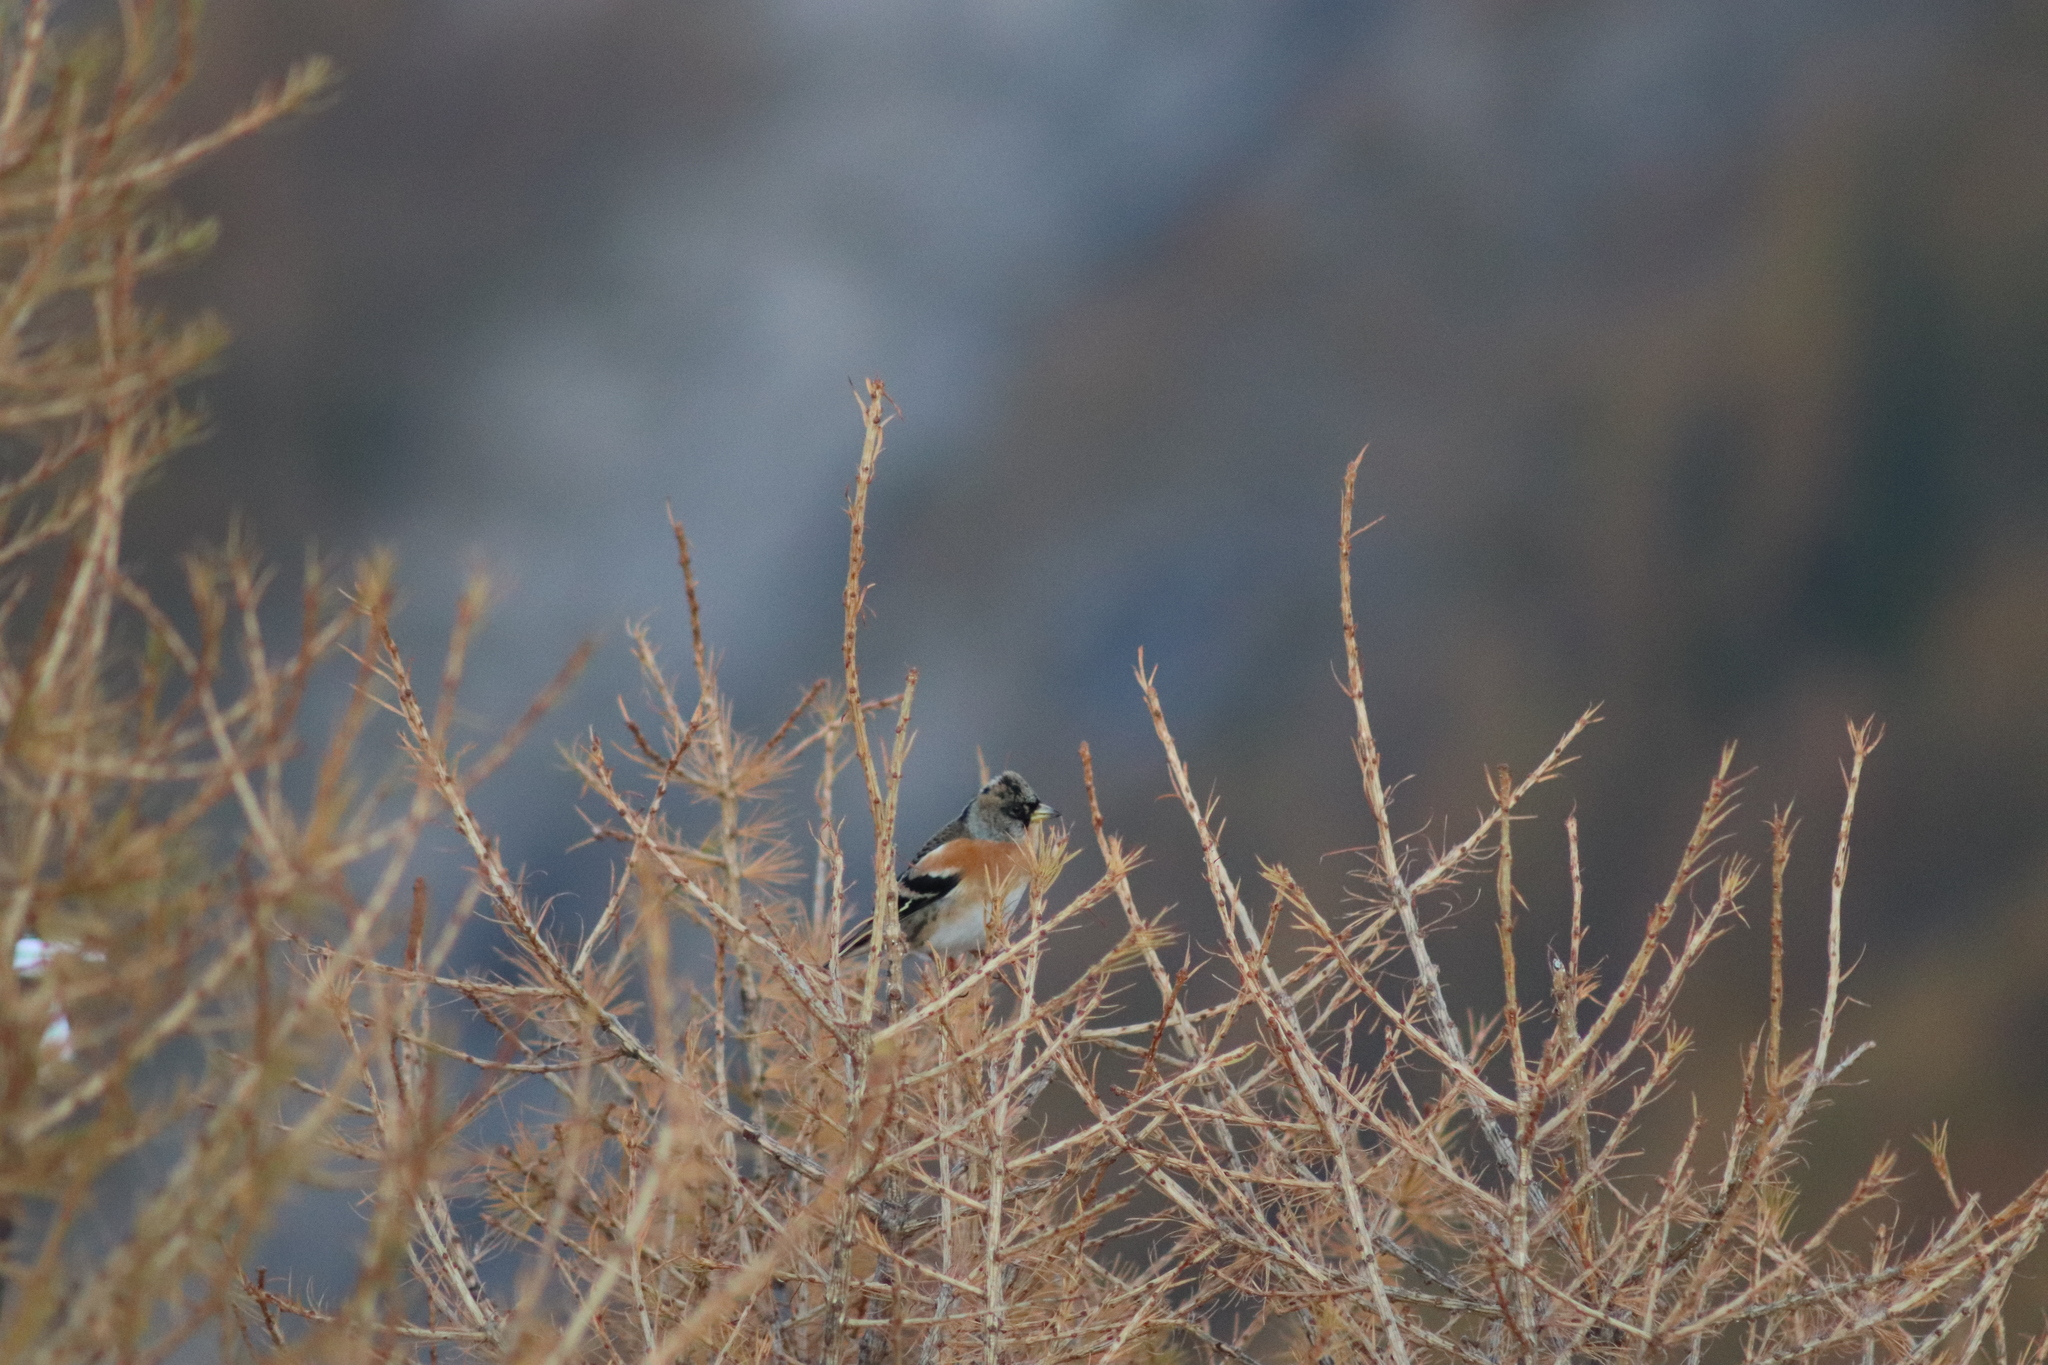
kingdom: Animalia
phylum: Chordata
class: Aves
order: Passeriformes
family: Fringillidae
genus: Fringilla
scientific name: Fringilla montifringilla
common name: Brambling
